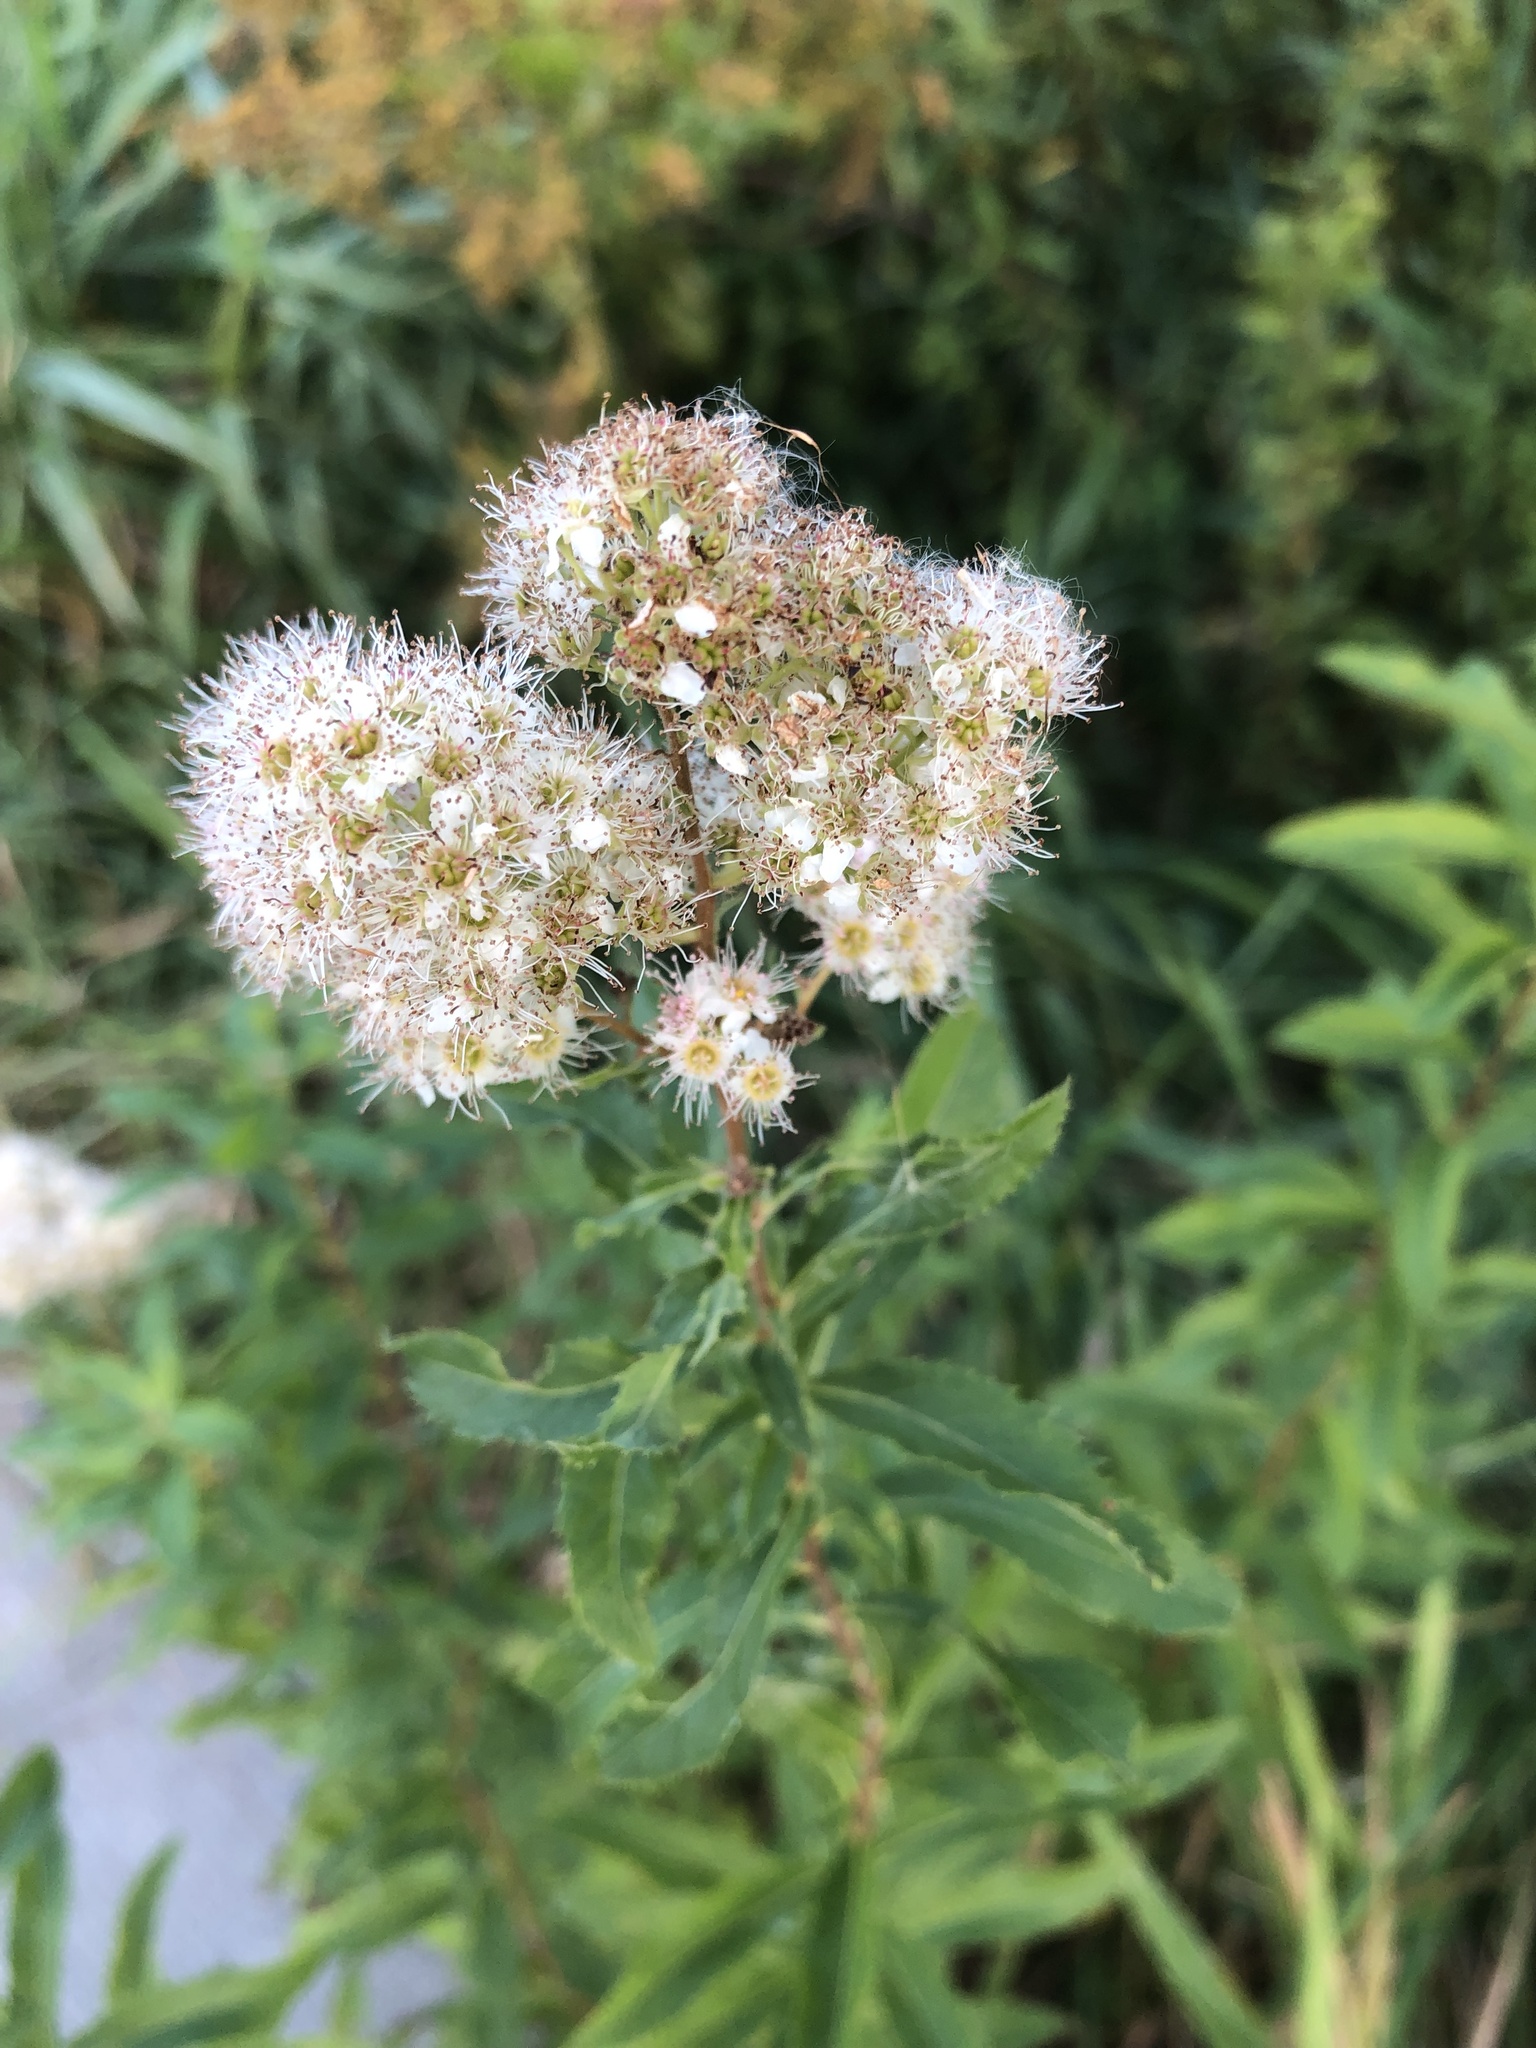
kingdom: Plantae
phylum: Tracheophyta
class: Magnoliopsida
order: Rosales
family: Rosaceae
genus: Spiraea
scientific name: Spiraea alba
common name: Pale bridewort
